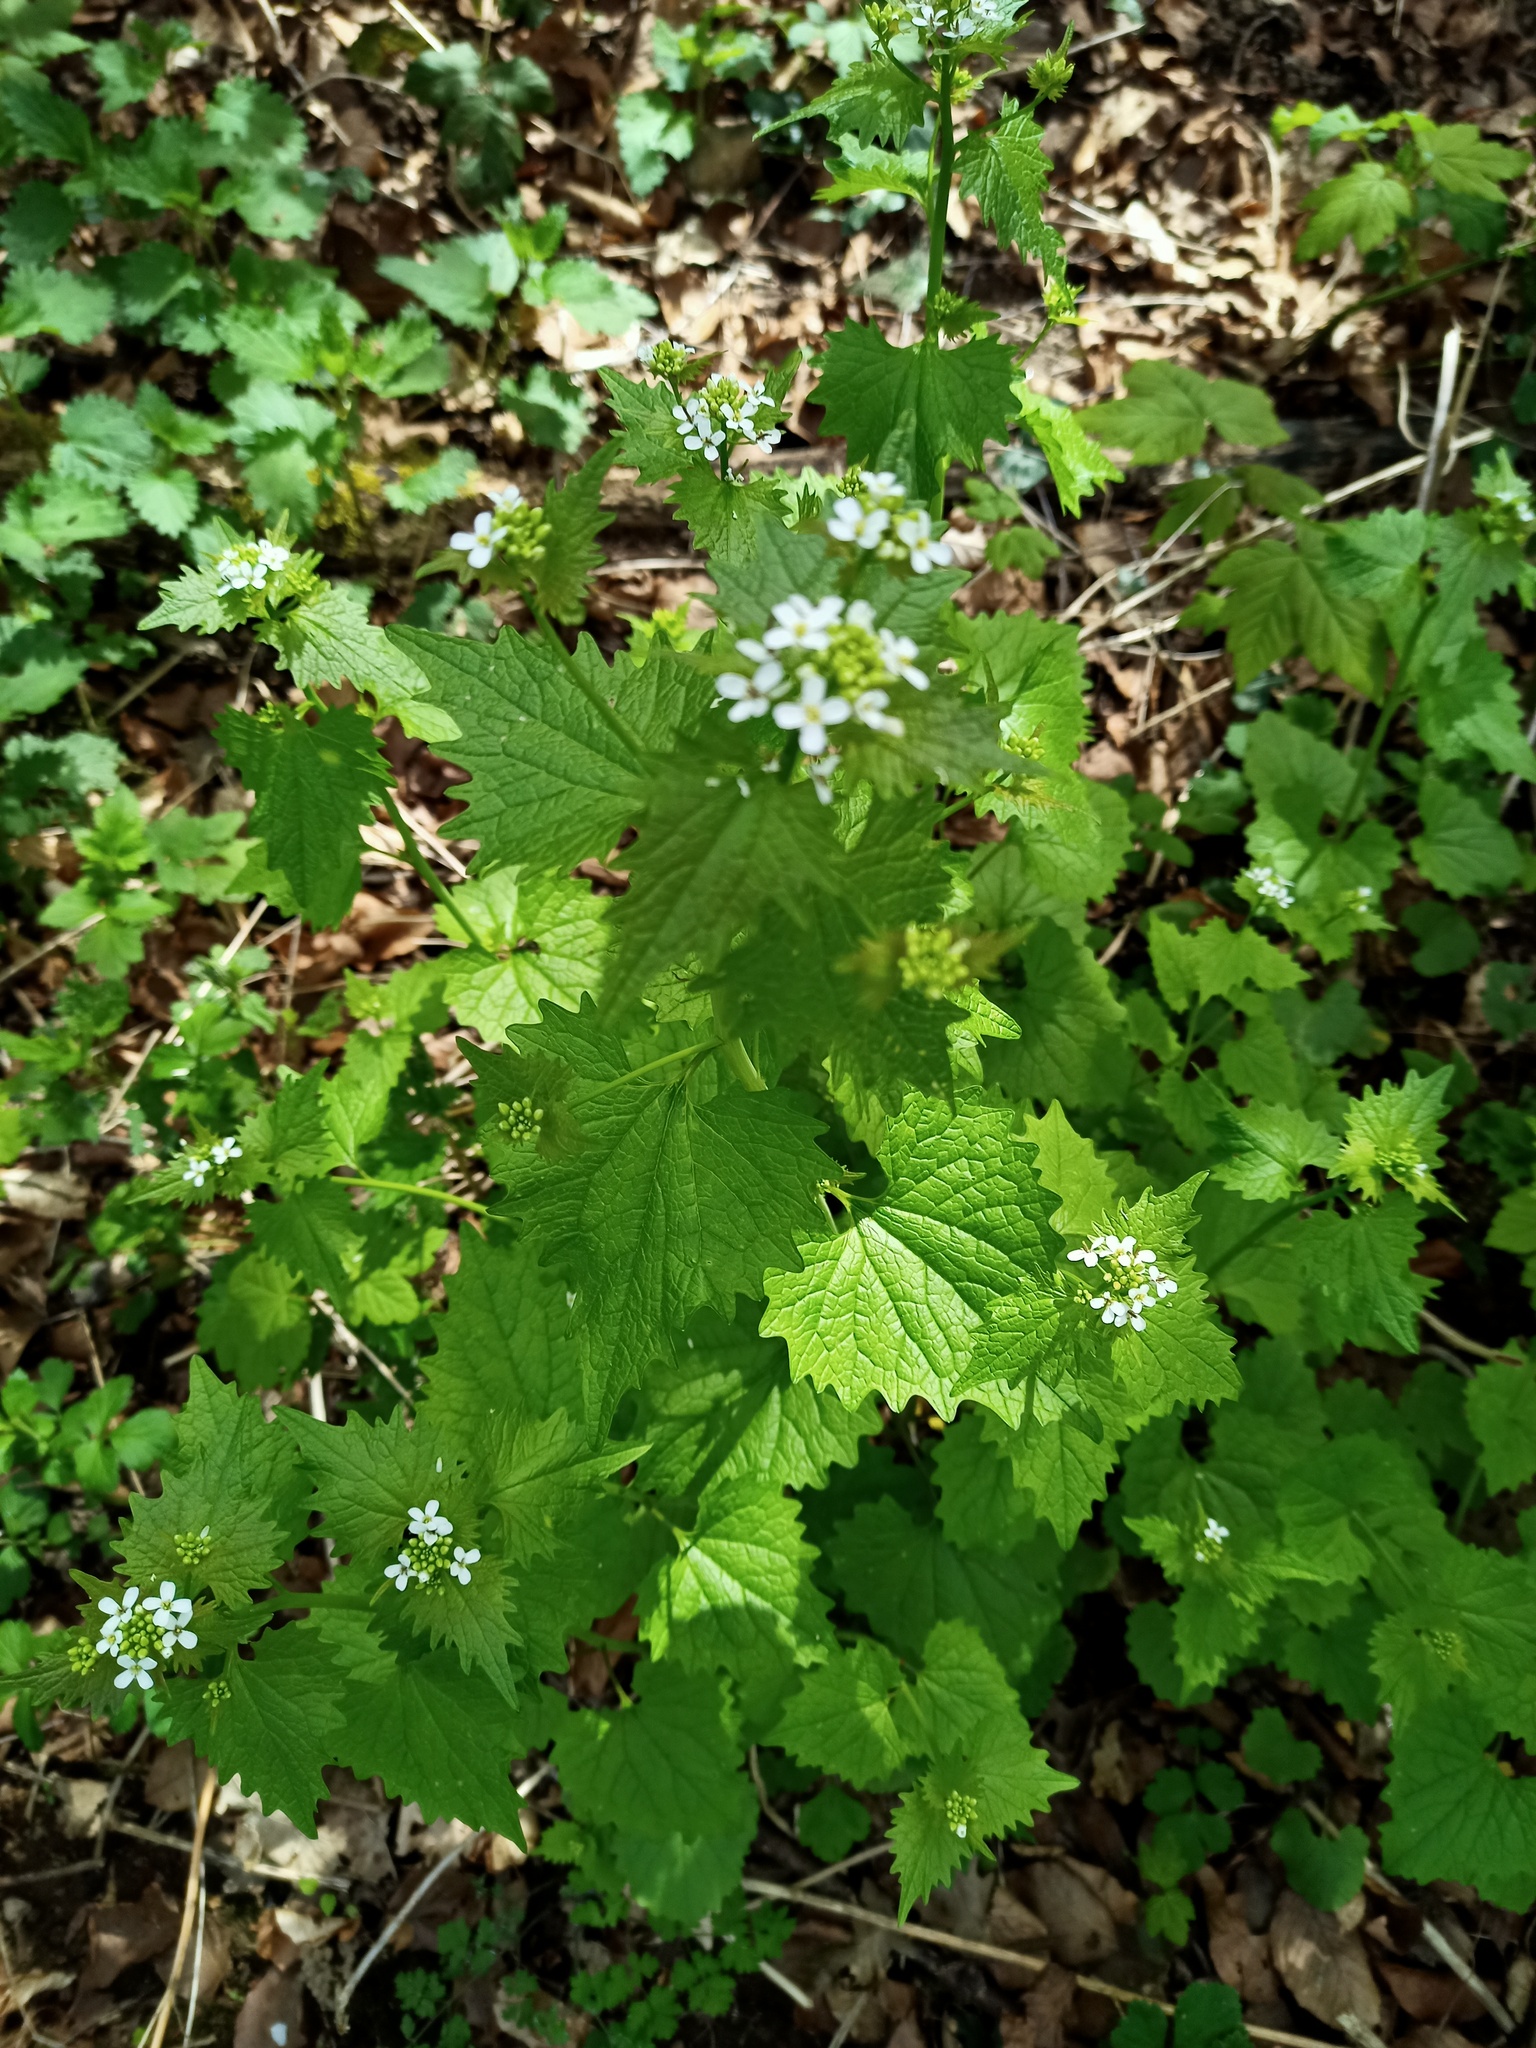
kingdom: Plantae
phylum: Tracheophyta
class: Magnoliopsida
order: Brassicales
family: Brassicaceae
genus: Alliaria
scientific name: Alliaria petiolata
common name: Garlic mustard
